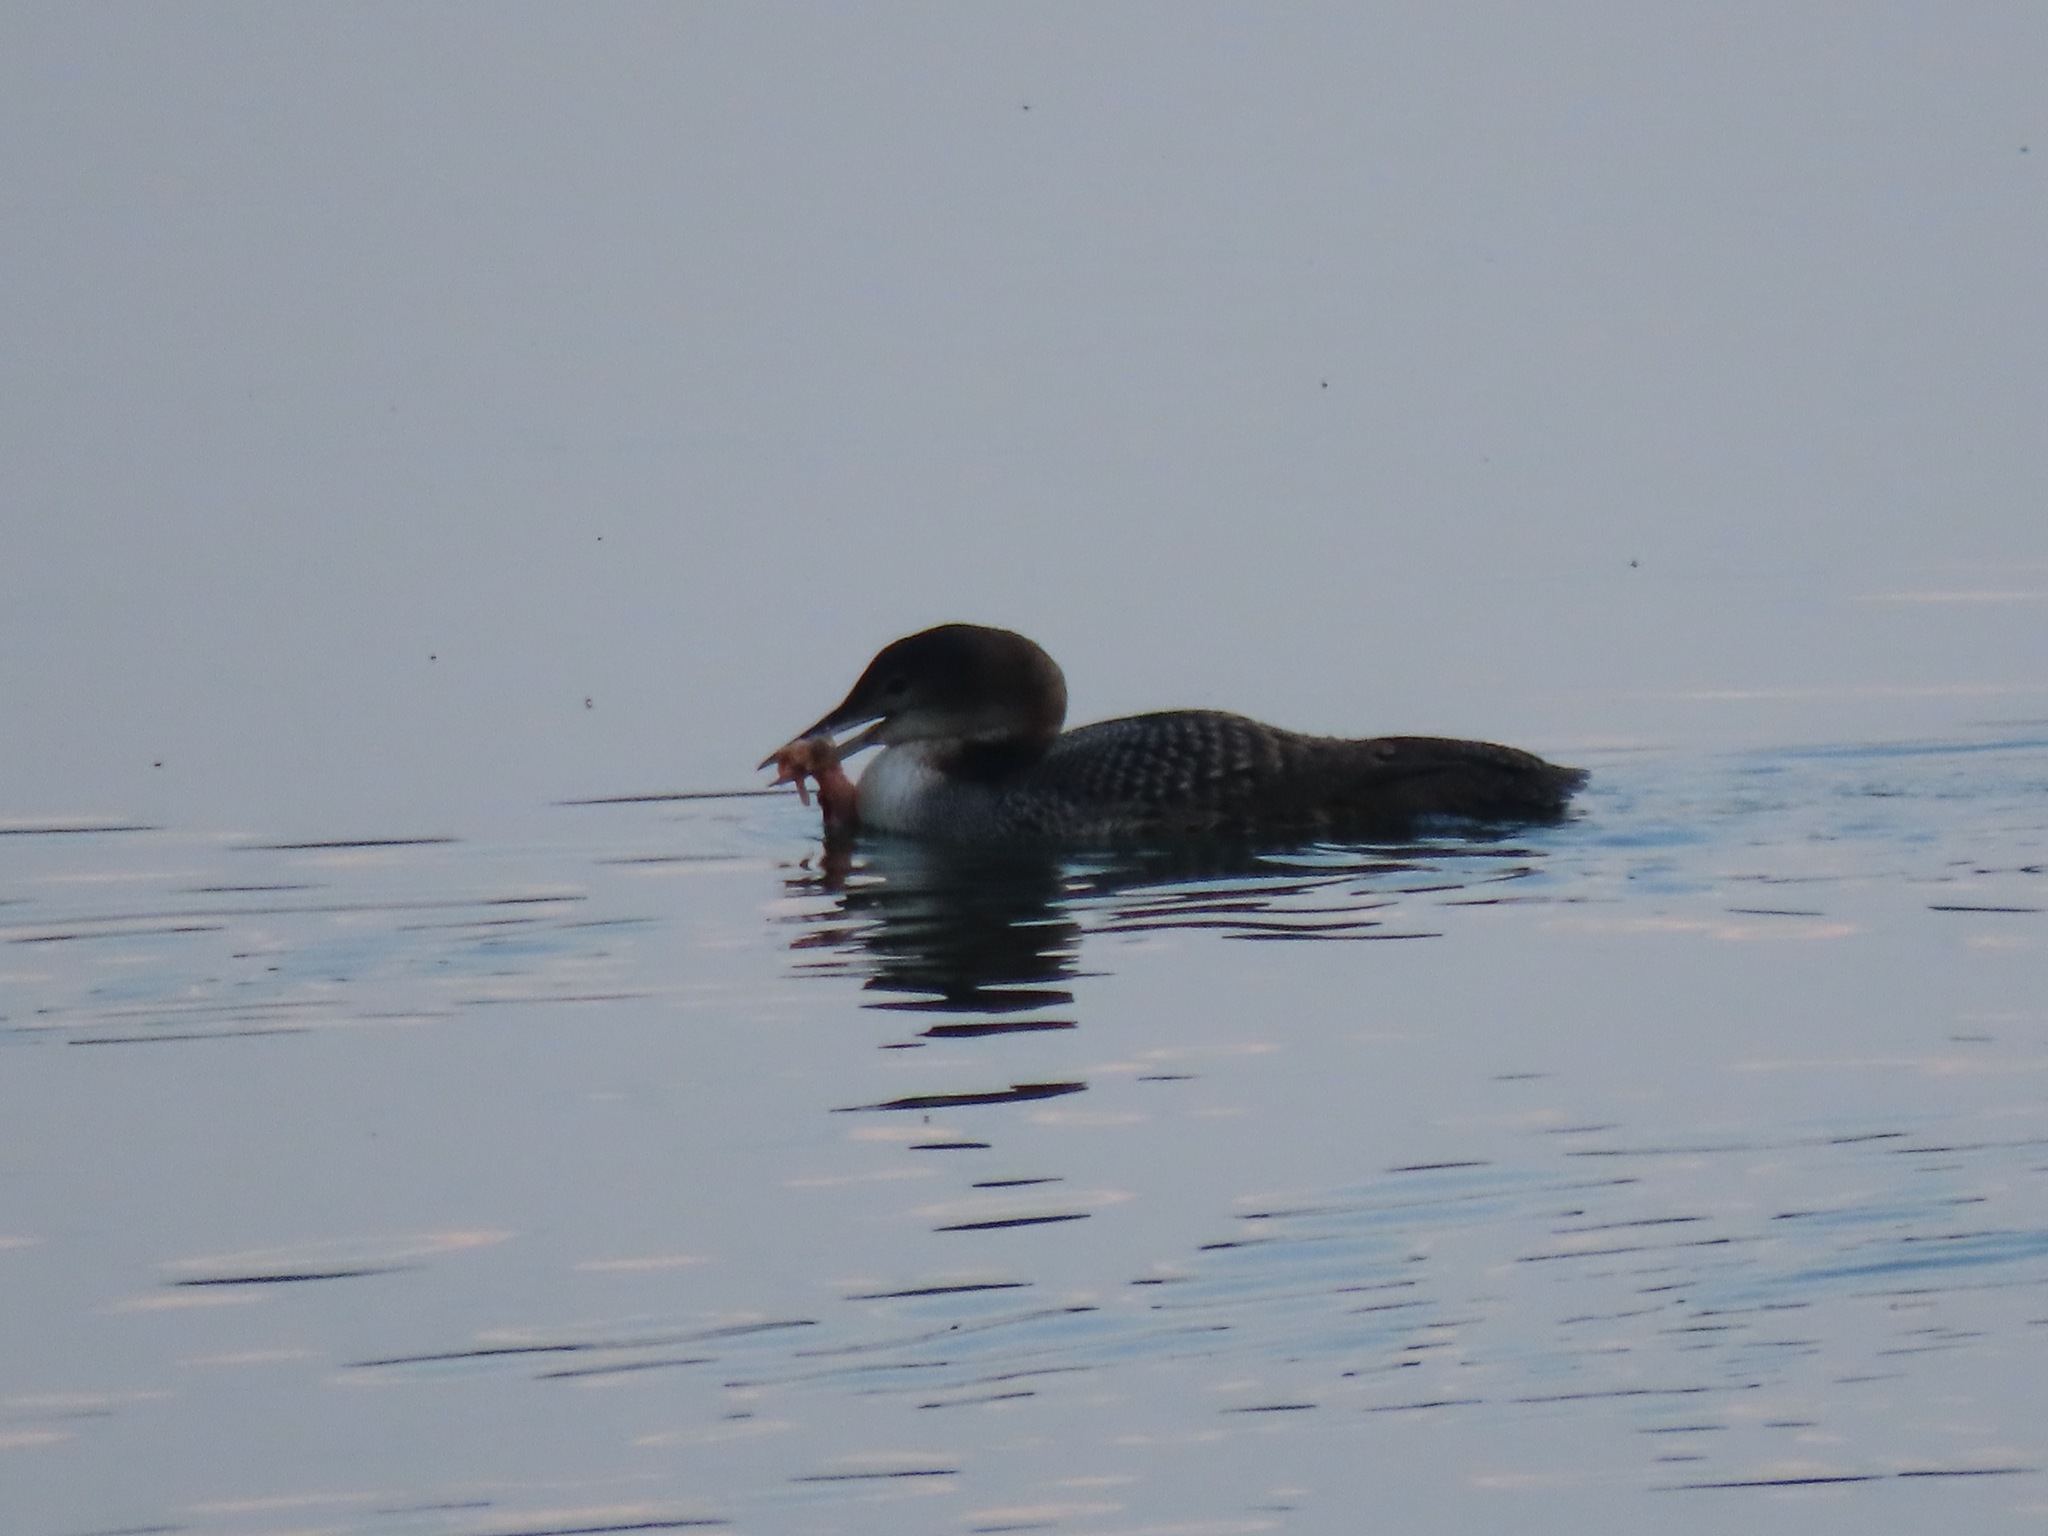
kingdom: Animalia
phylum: Chordata
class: Aves
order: Gaviiformes
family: Gaviidae
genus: Gavia
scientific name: Gavia immer
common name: Common loon
